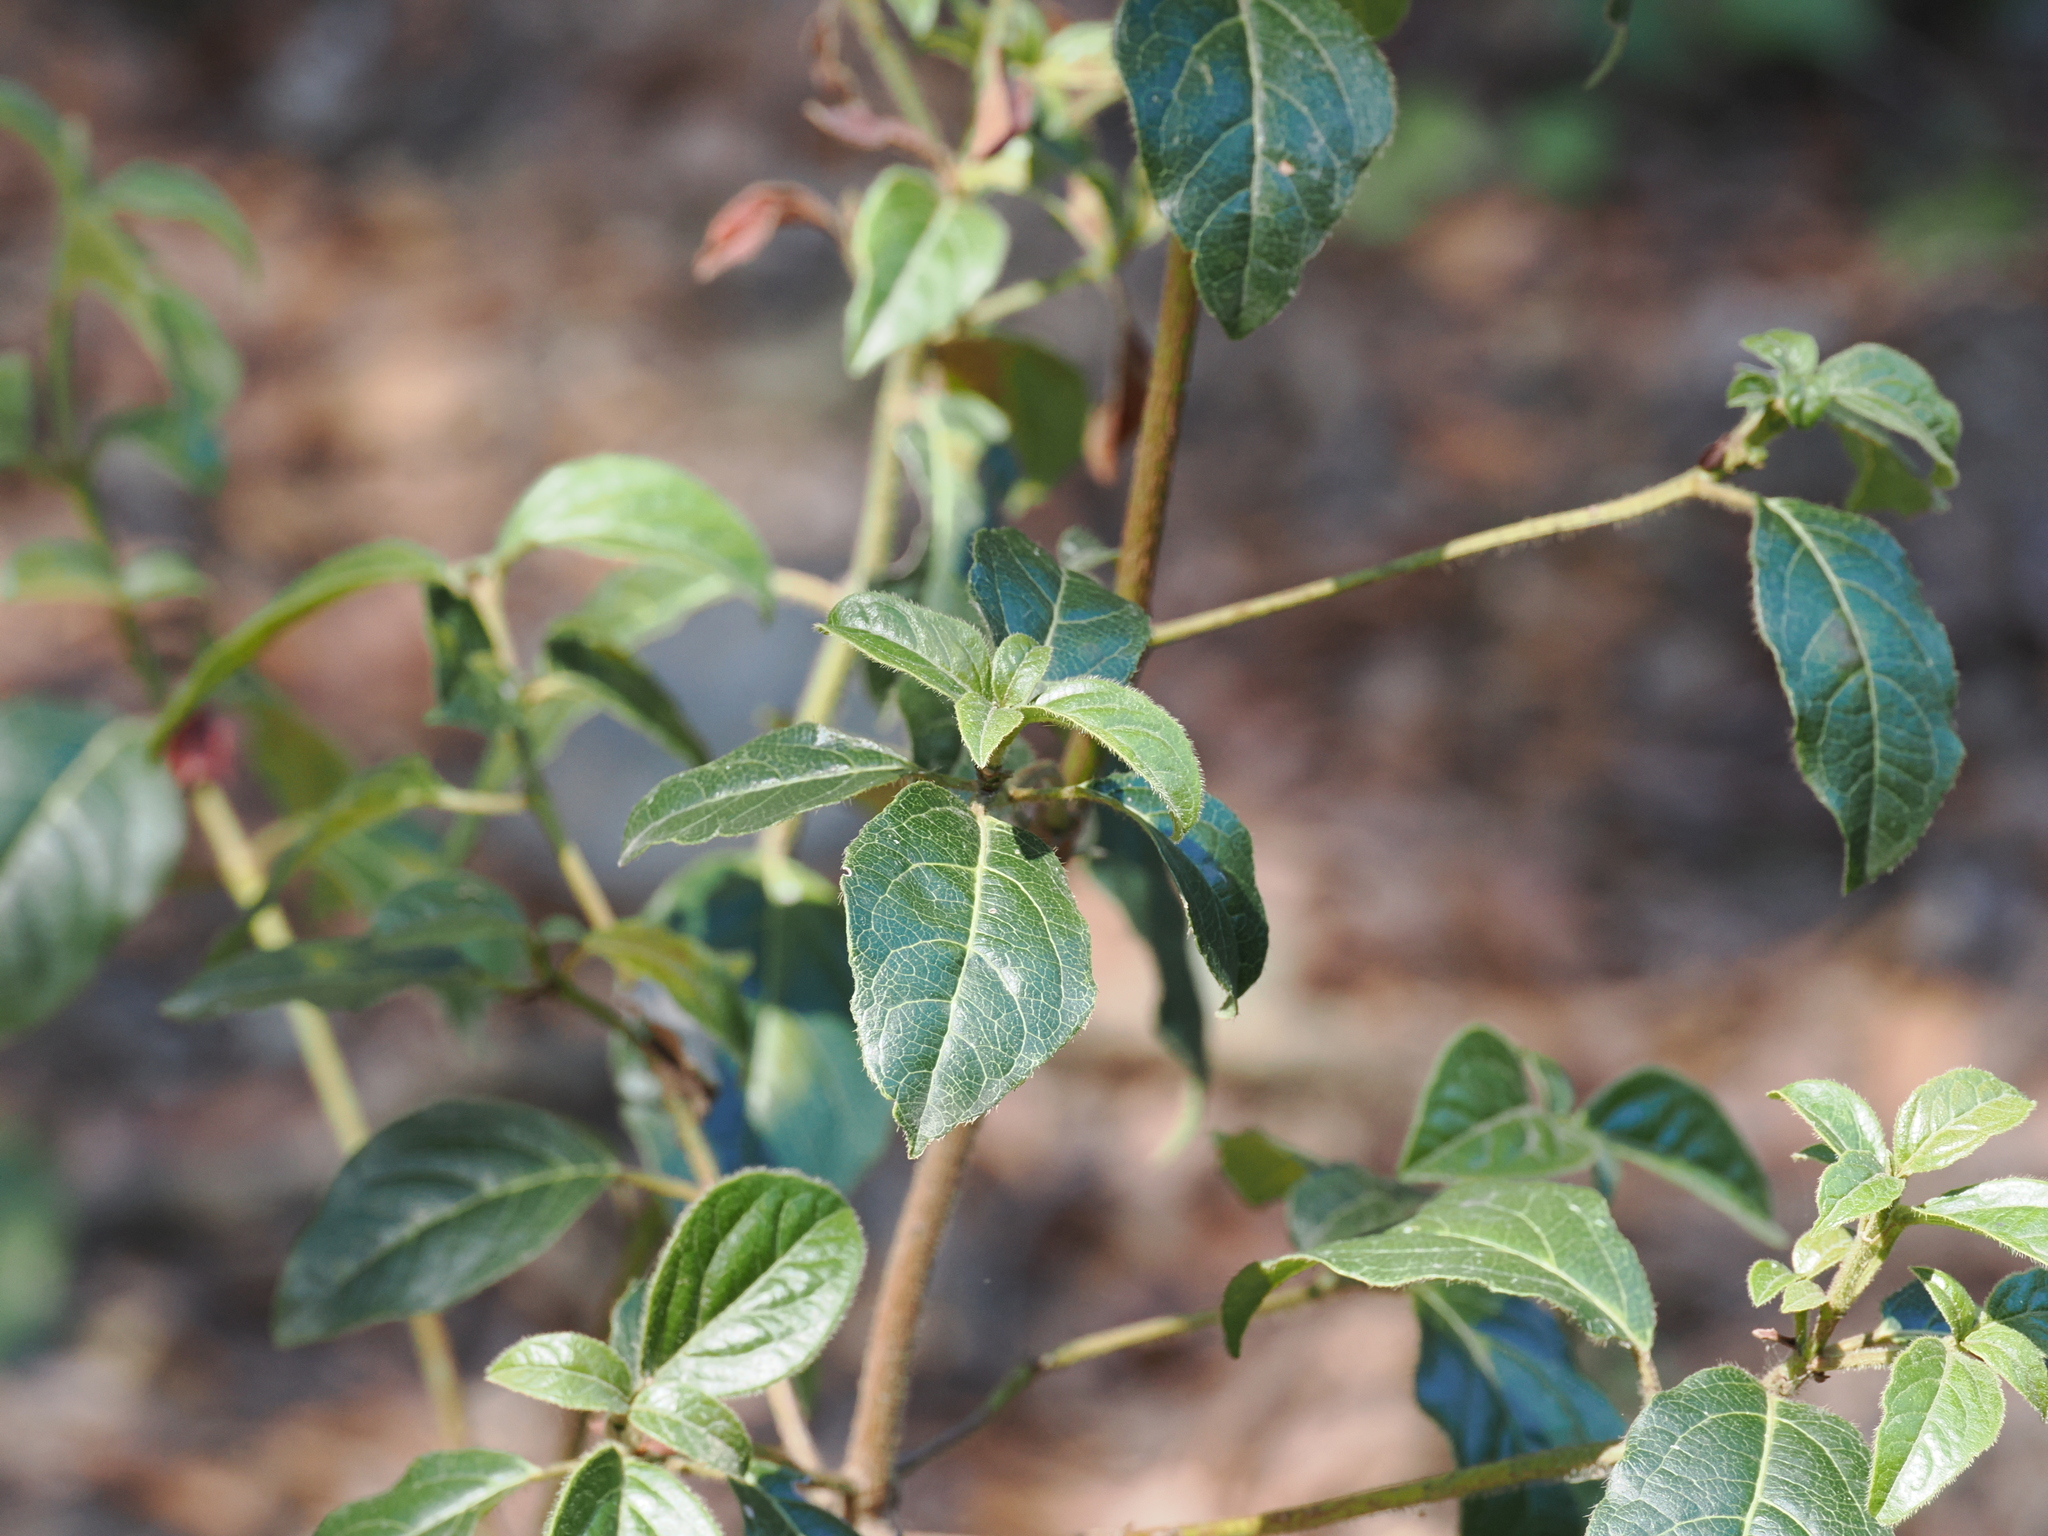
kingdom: Plantae
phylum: Tracheophyta
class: Magnoliopsida
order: Dipsacales
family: Viburnaceae
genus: Viburnum
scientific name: Viburnum tinus
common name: Laurustinus
